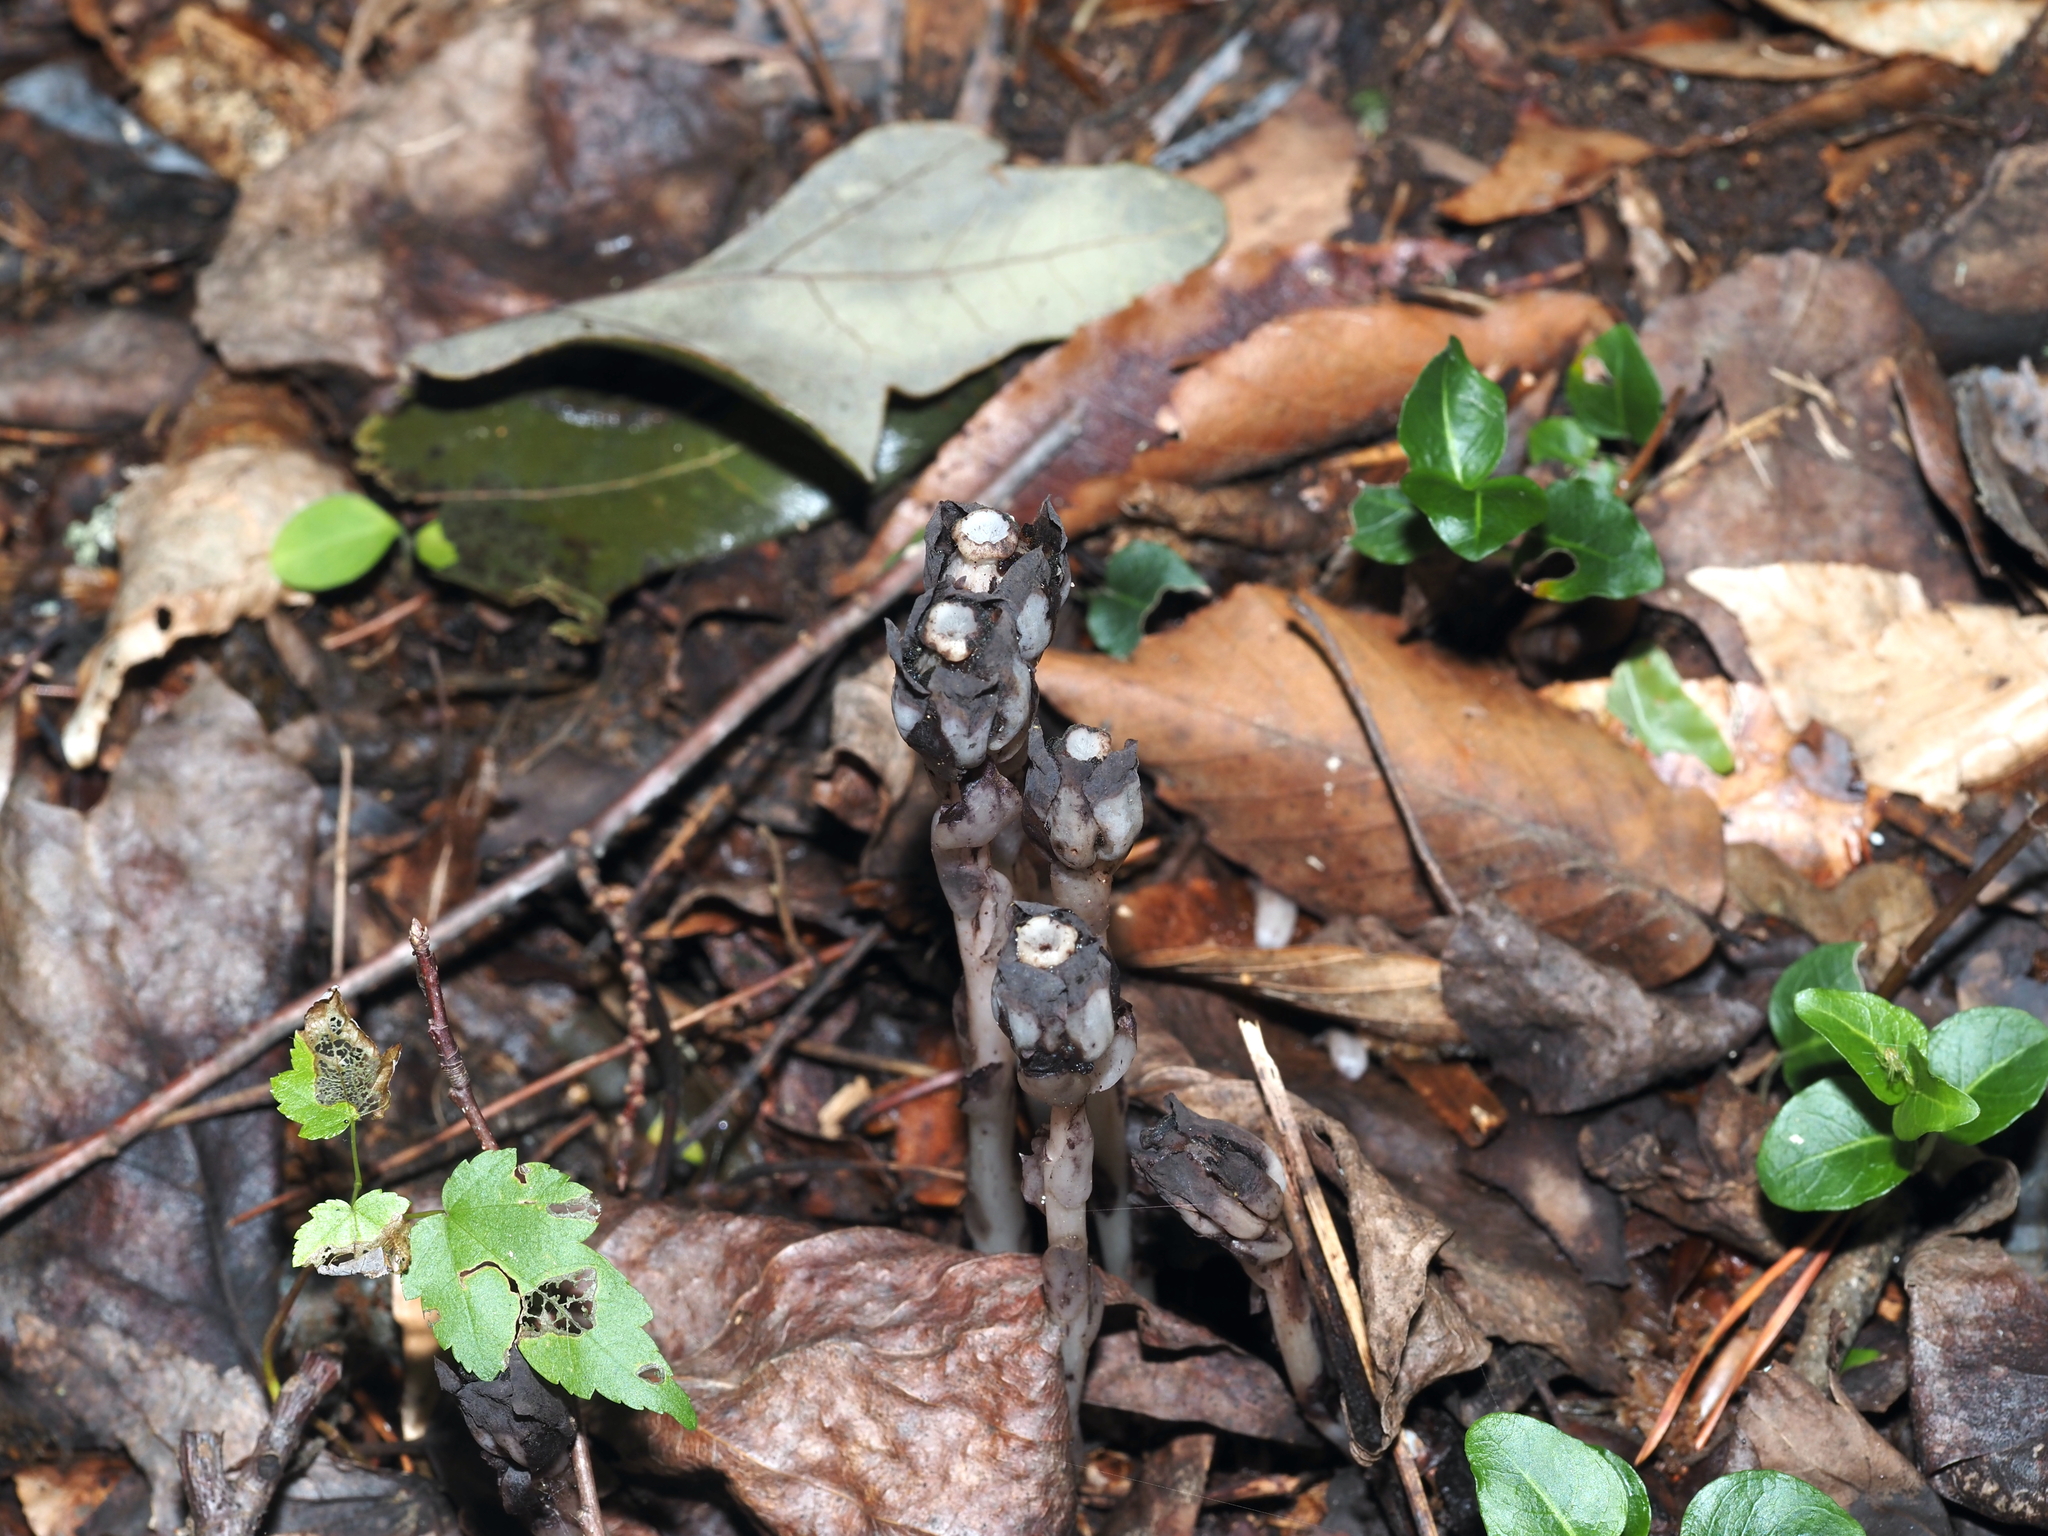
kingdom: Plantae
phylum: Tracheophyta
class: Magnoliopsida
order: Ericales
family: Ericaceae
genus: Monotropa
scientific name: Monotropa uniflora
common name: Convulsion root
